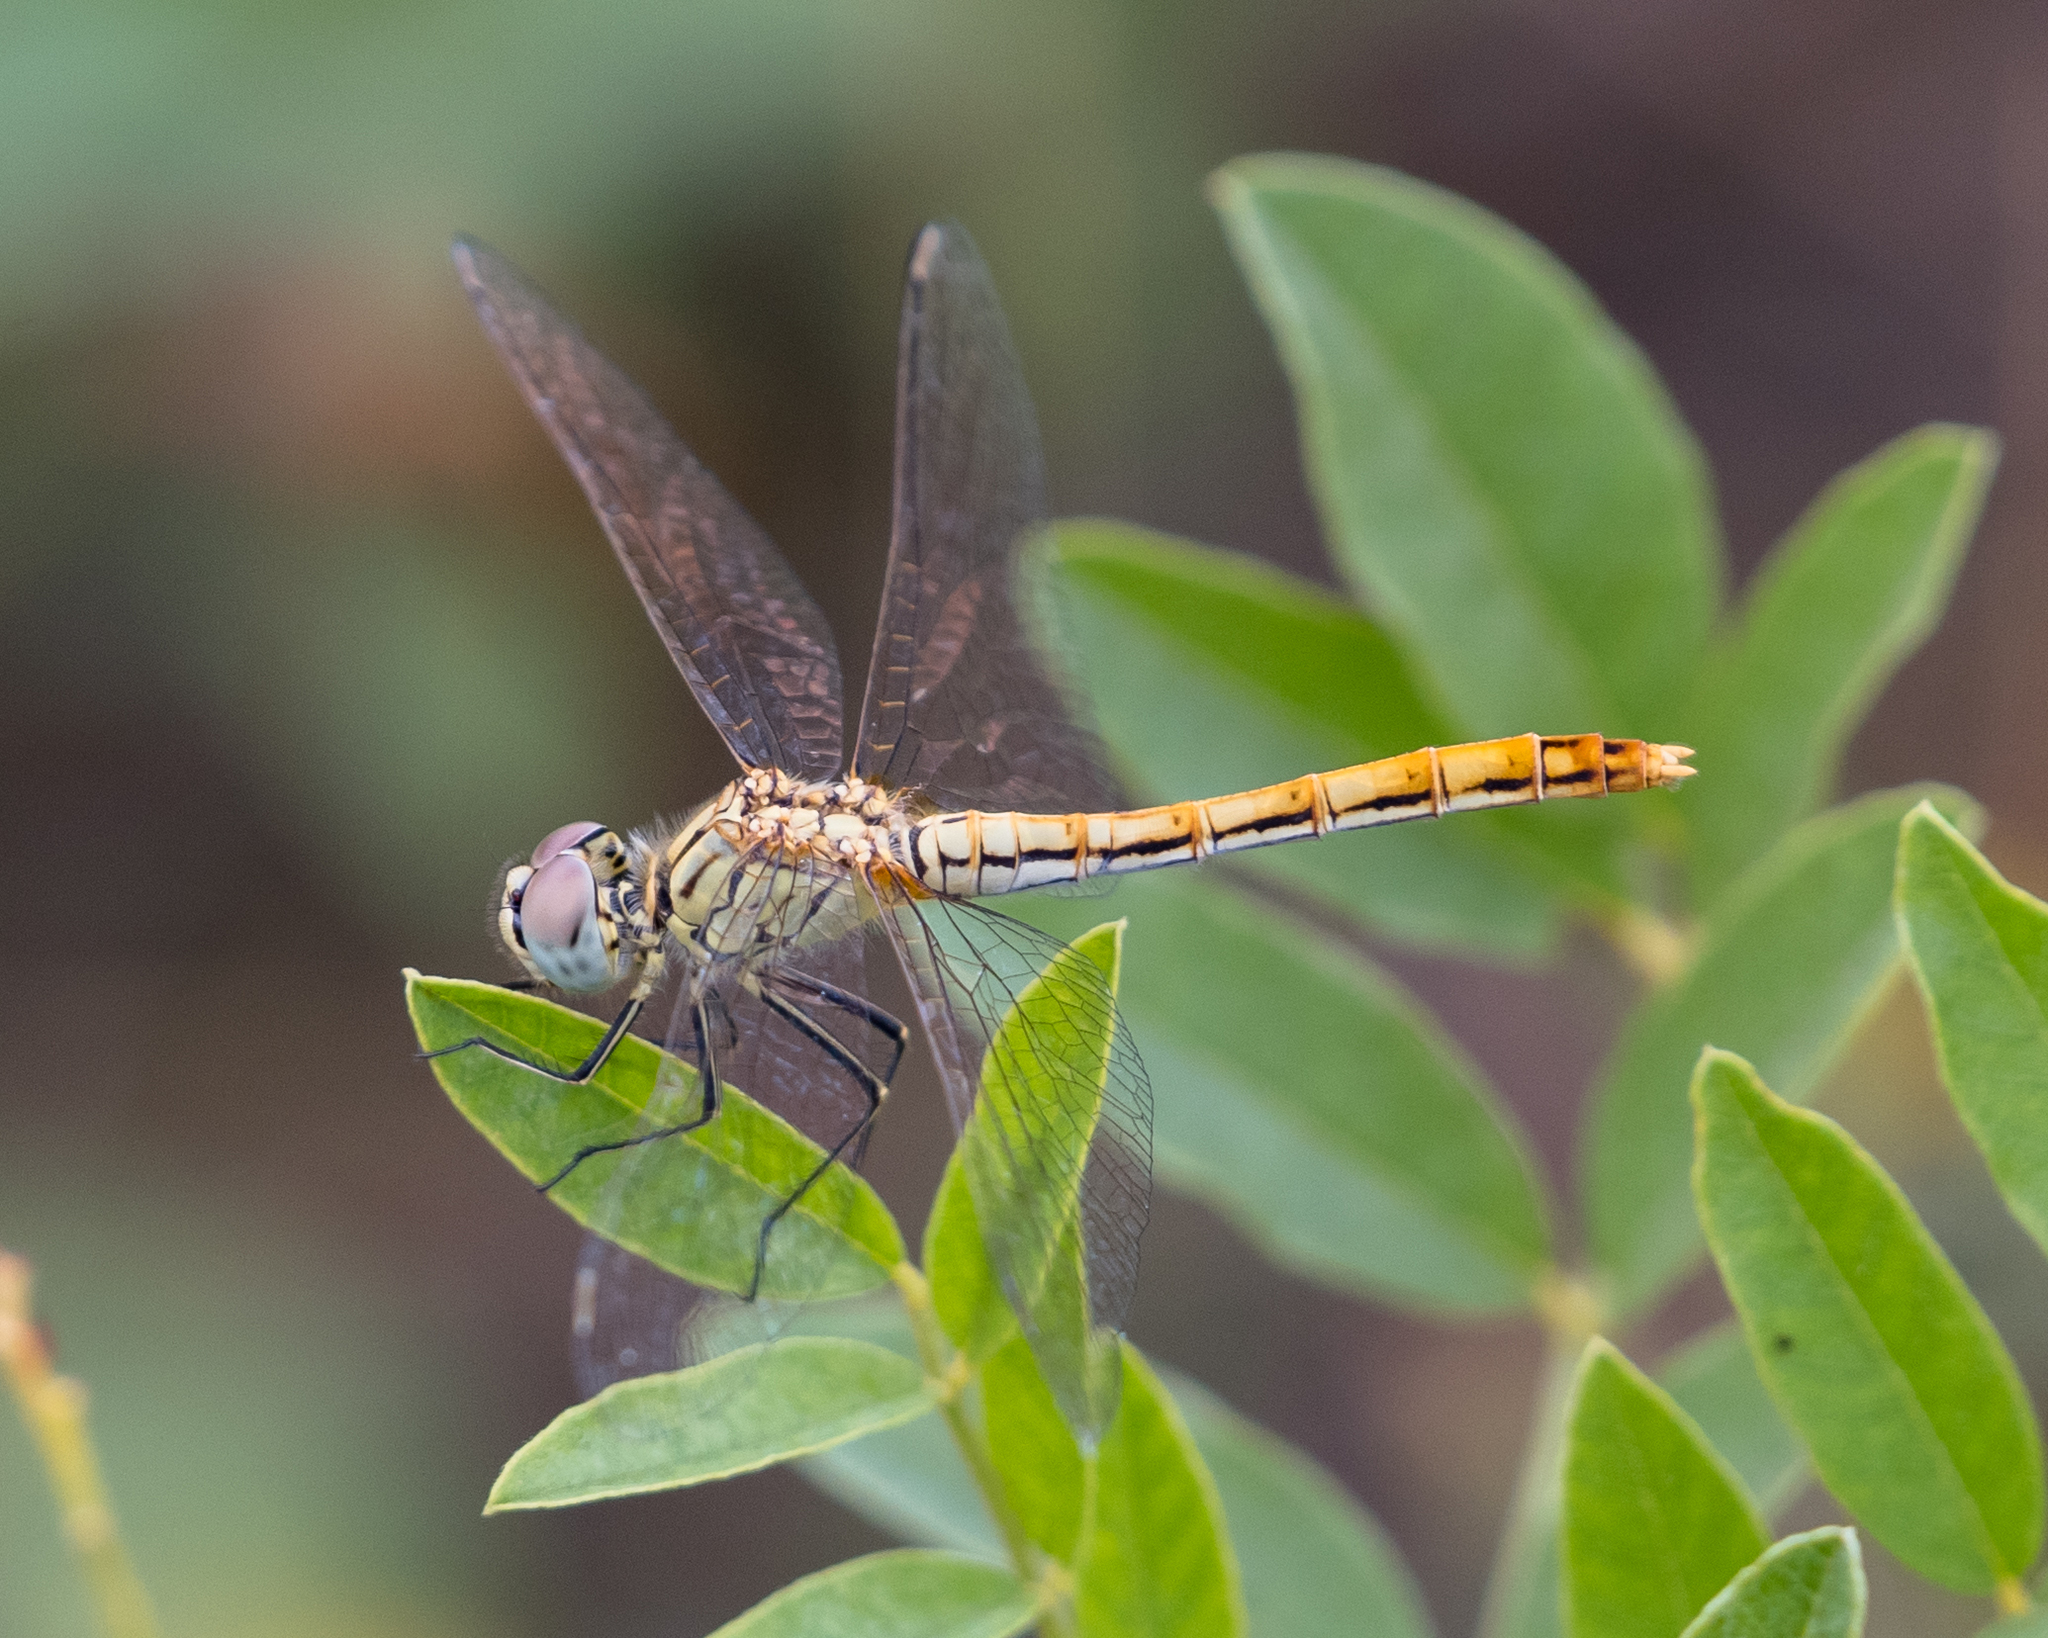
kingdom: Animalia
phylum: Arthropoda
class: Insecta
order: Odonata
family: Libellulidae
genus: Sympetrum
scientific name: Sympetrum tibiale
